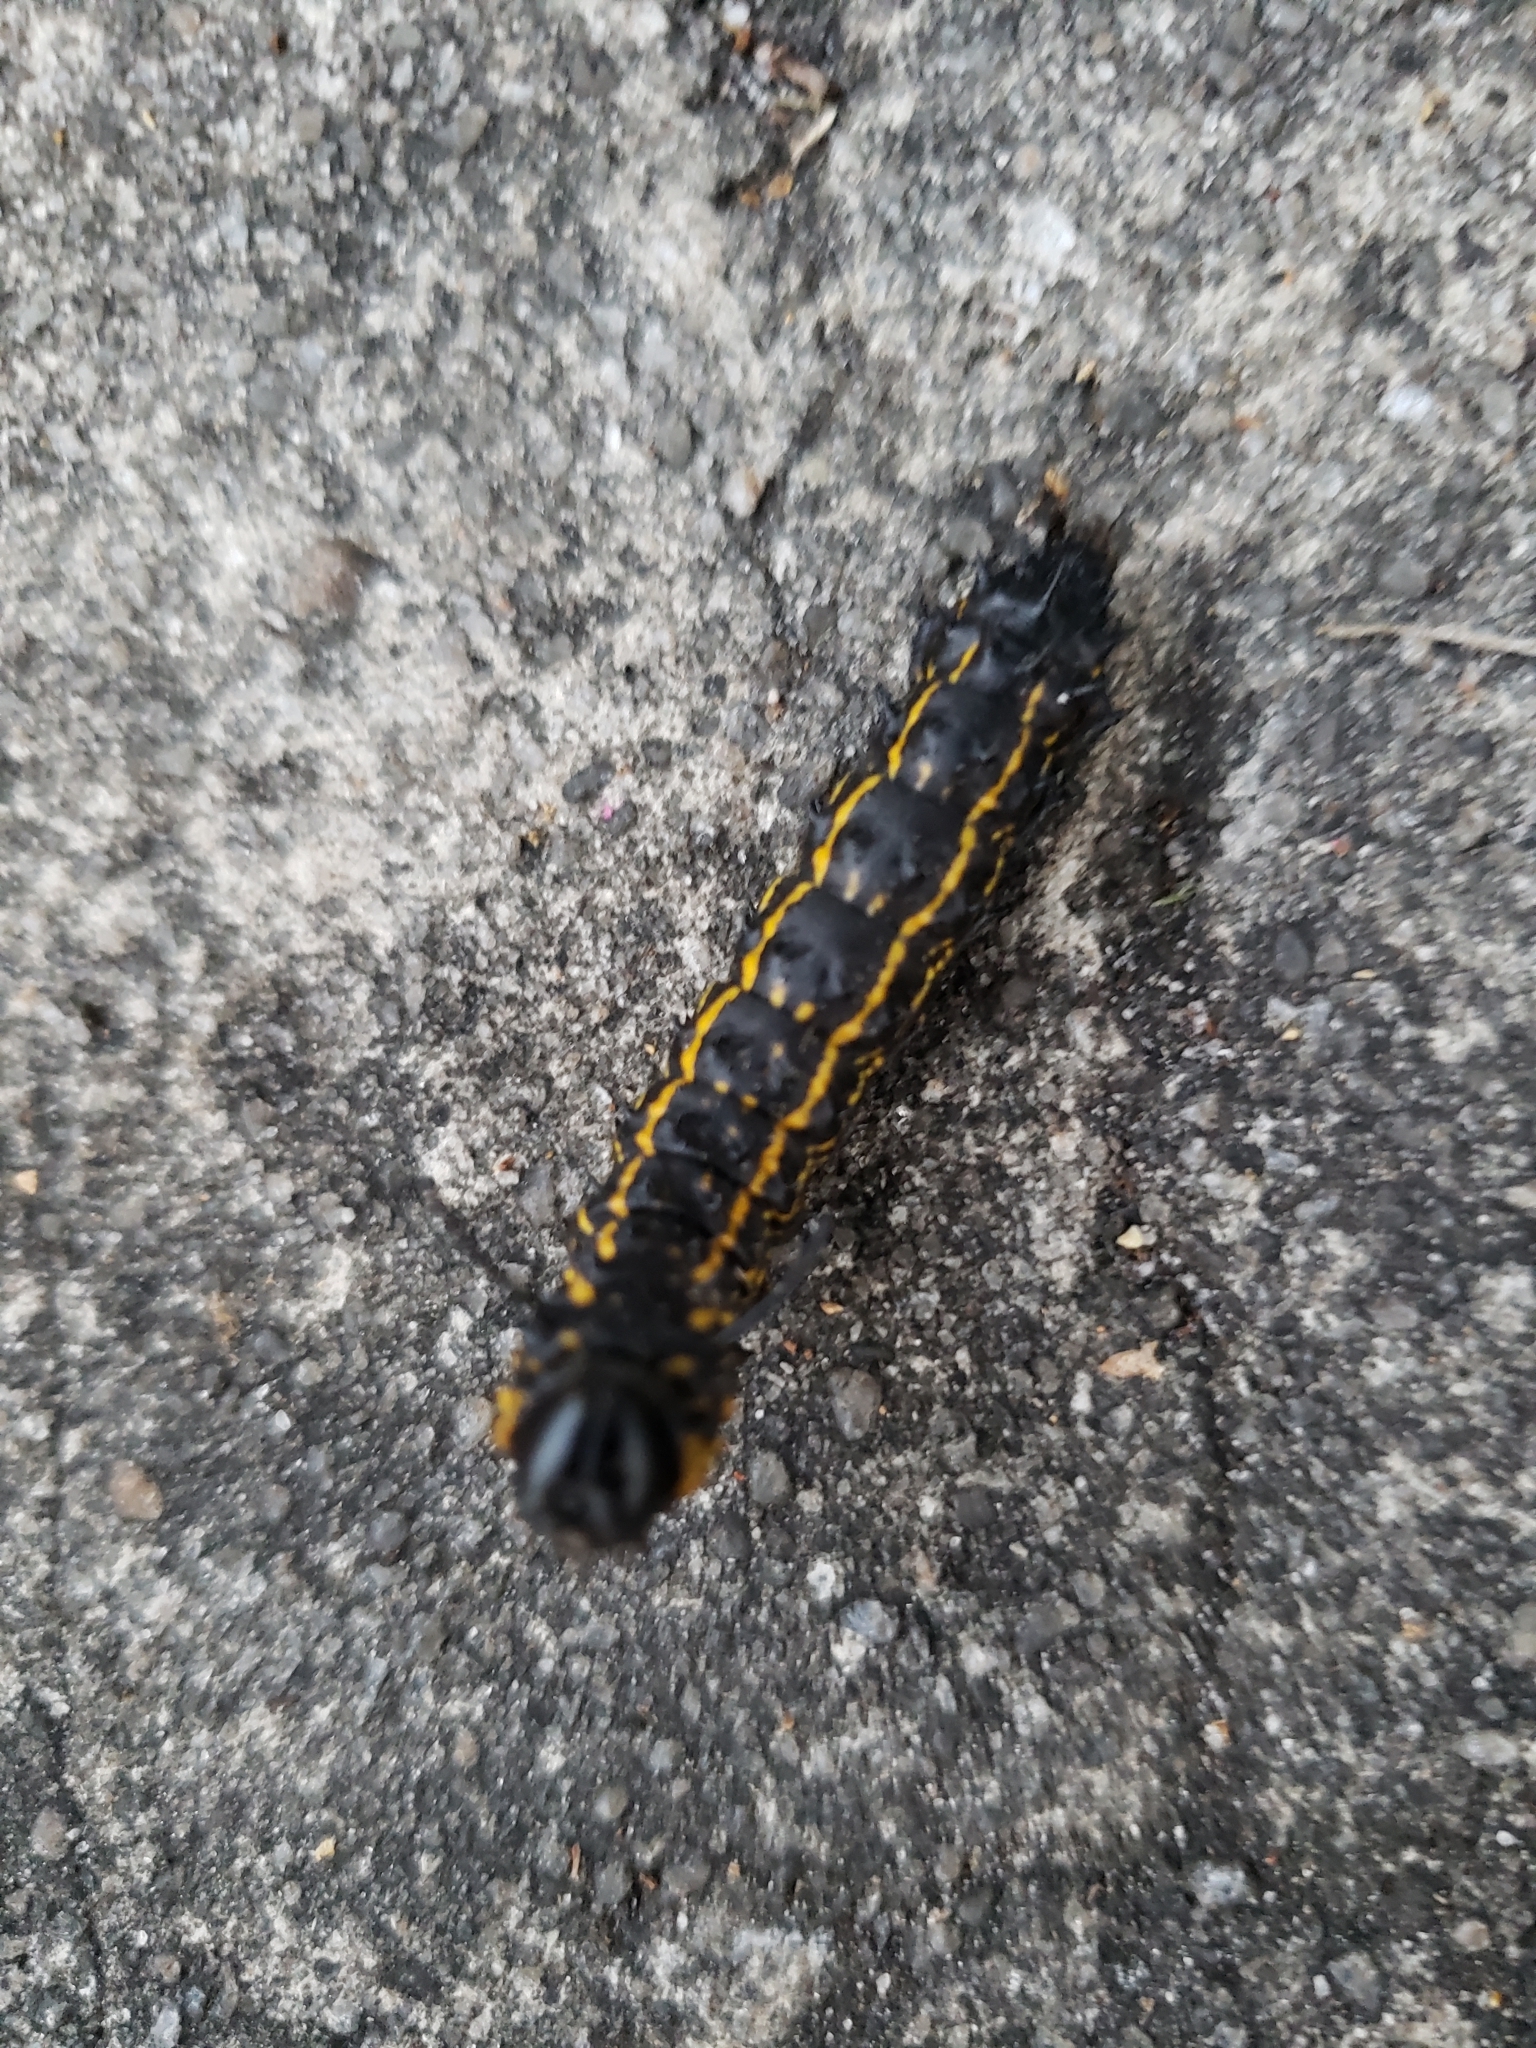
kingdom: Animalia
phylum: Arthropoda
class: Insecta
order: Lepidoptera
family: Saturniidae
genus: Anisota
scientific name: Anisota peigleri
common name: Peigler's oakworm moth
